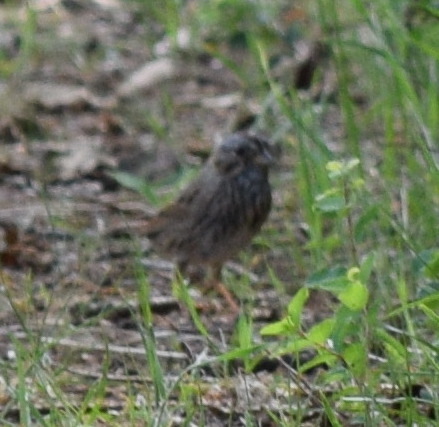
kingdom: Animalia
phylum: Chordata
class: Aves
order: Passeriformes
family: Passerellidae
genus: Melospiza
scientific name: Melospiza lincolnii
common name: Lincoln's sparrow
